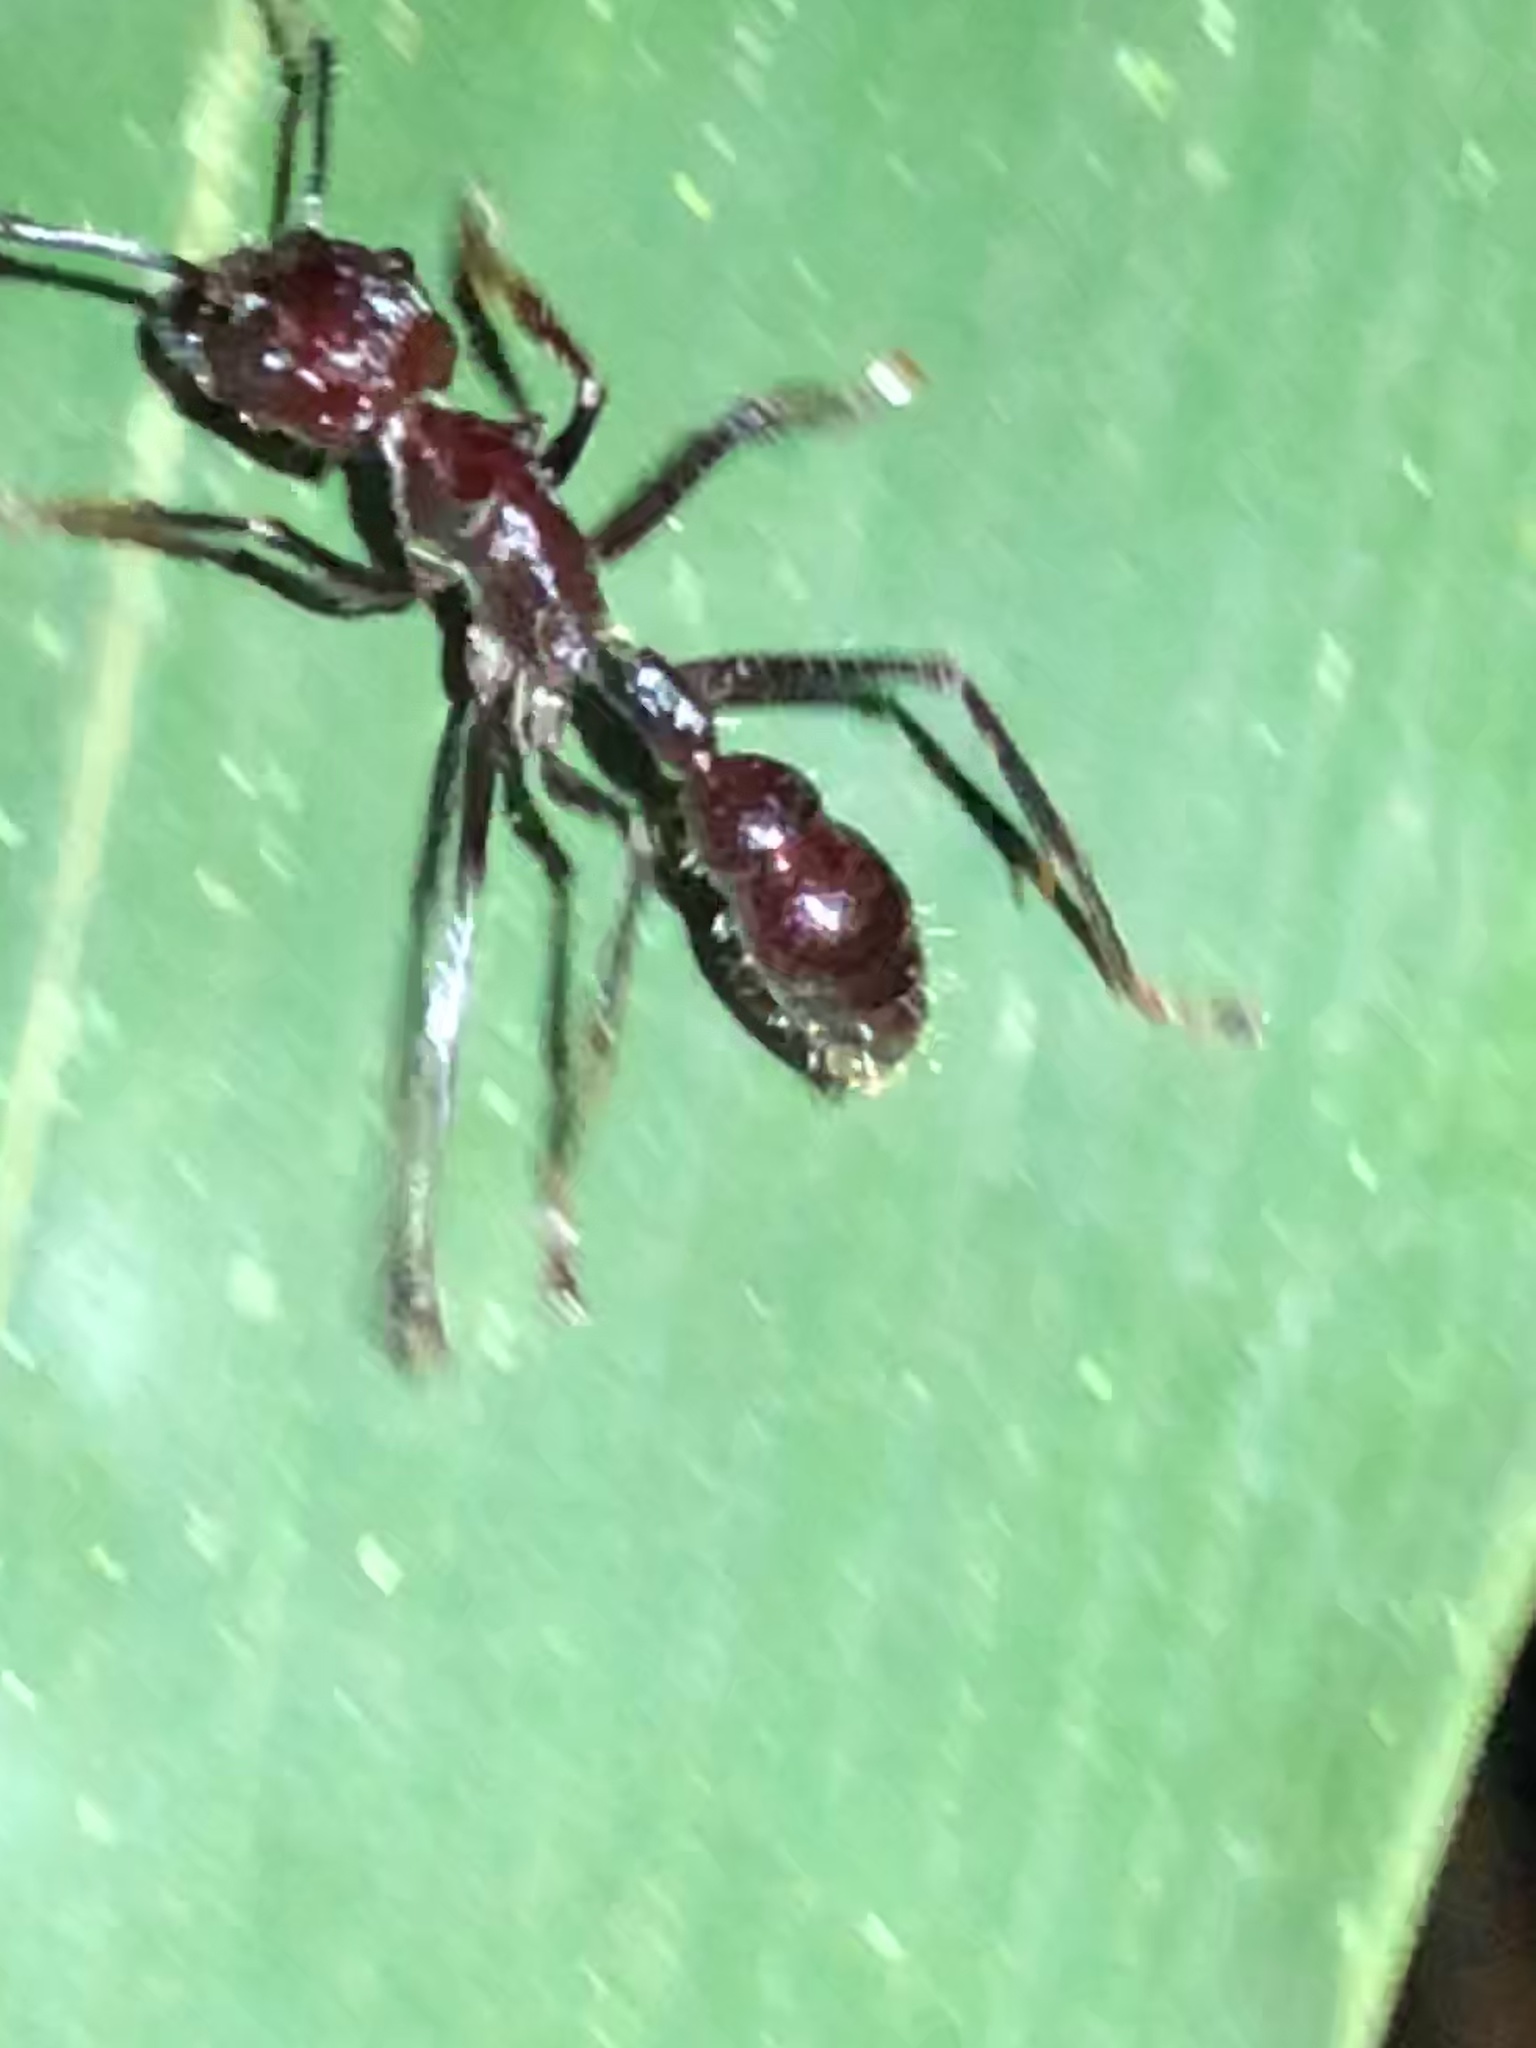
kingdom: Animalia
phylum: Arthropoda
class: Insecta
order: Hymenoptera
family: Formicidae
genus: Paraponera
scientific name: Paraponera clavata
